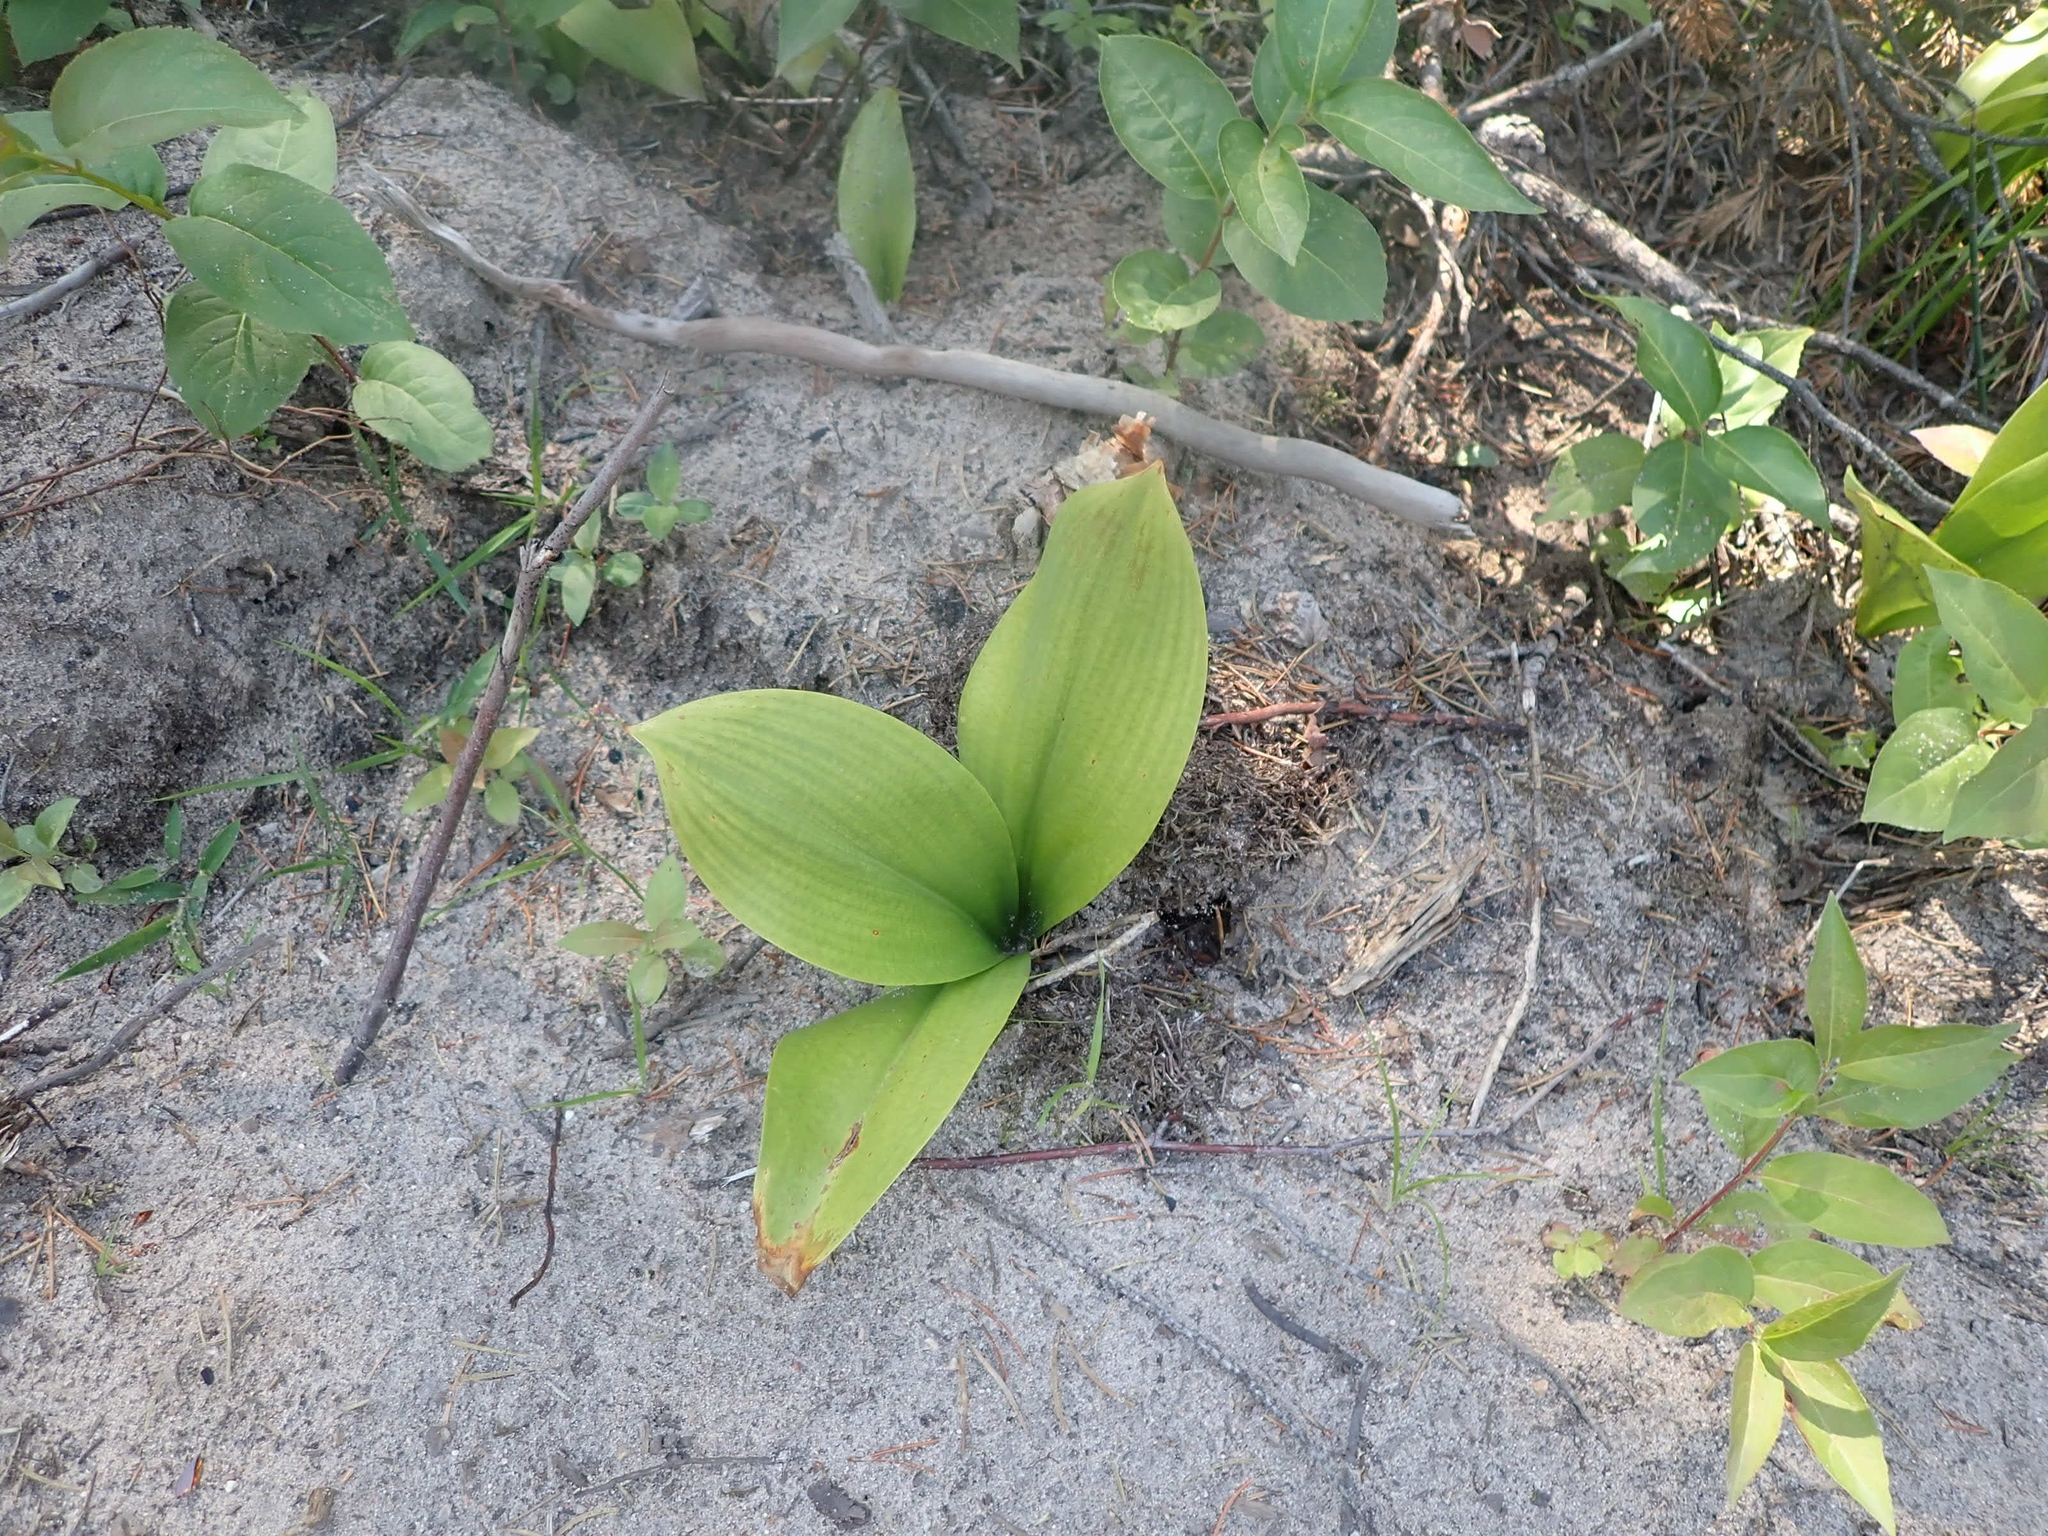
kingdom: Plantae
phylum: Tracheophyta
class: Liliopsida
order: Liliales
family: Liliaceae
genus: Clintonia
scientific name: Clintonia borealis
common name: Yellow clintonia
